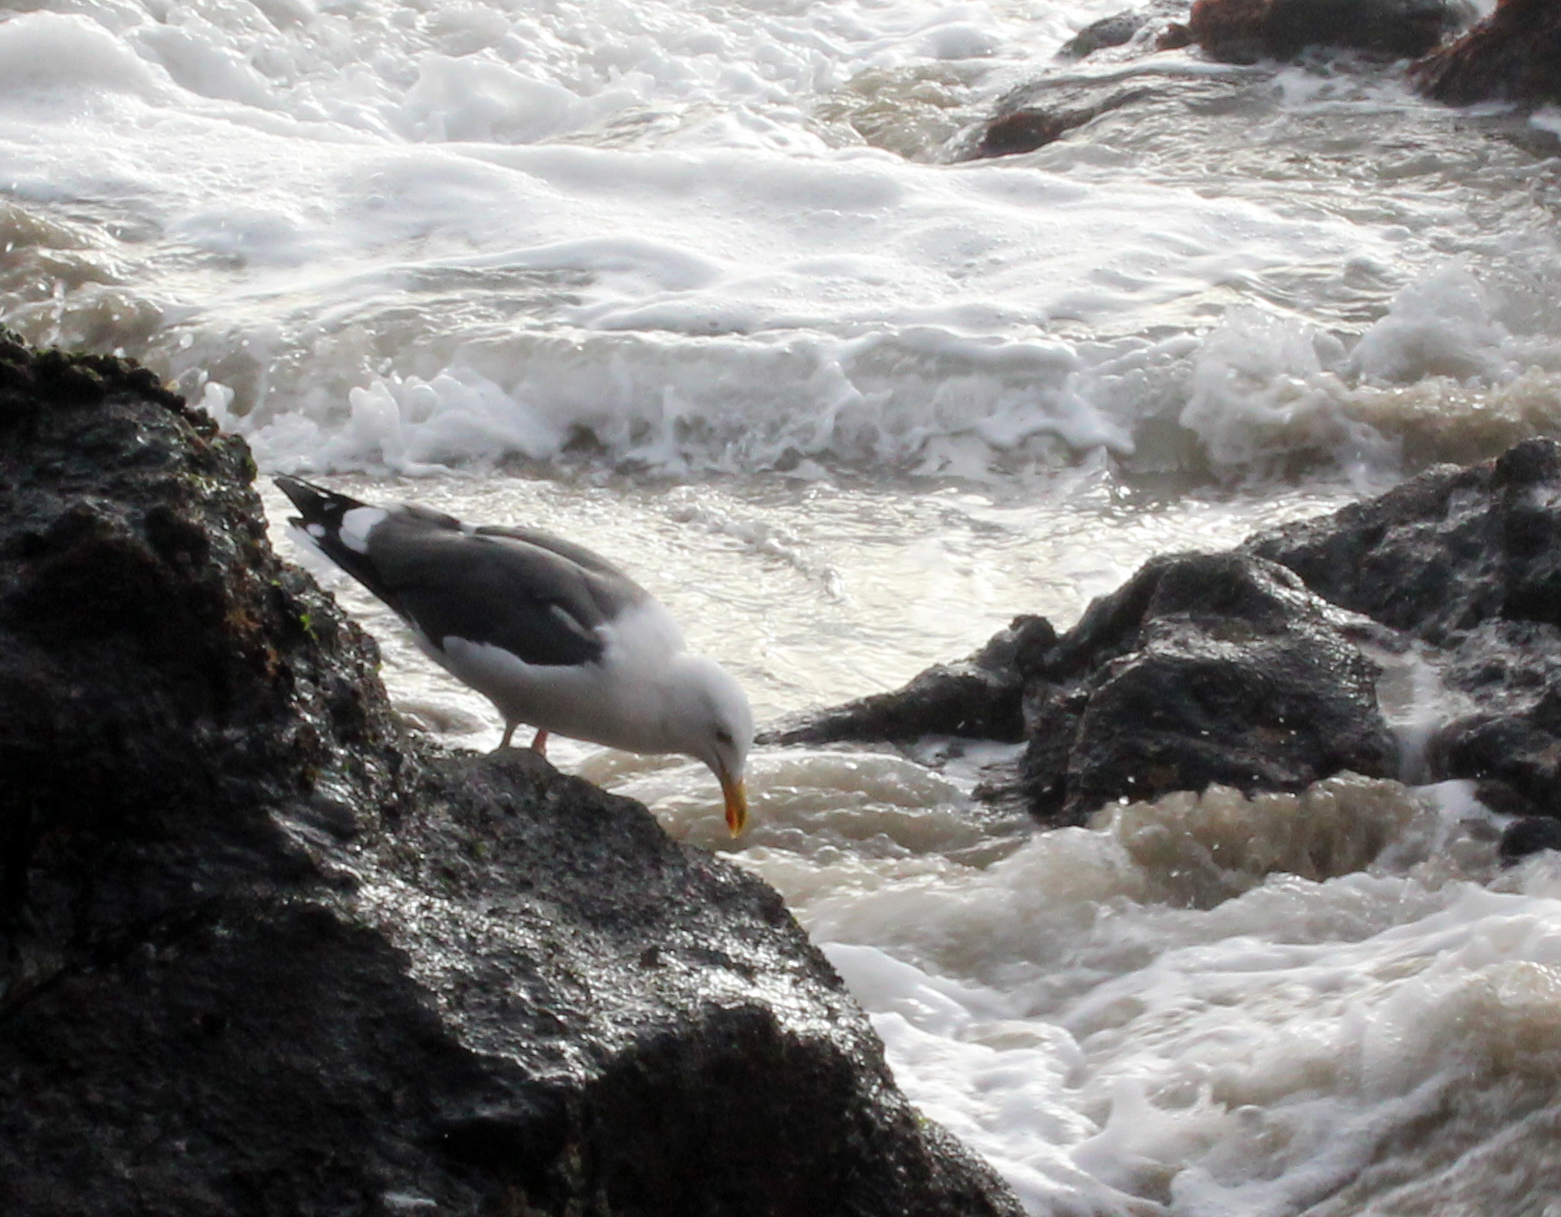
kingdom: Animalia
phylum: Chordata
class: Aves
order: Charadriiformes
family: Laridae
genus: Larus
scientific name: Larus occidentalis
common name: Western gull
